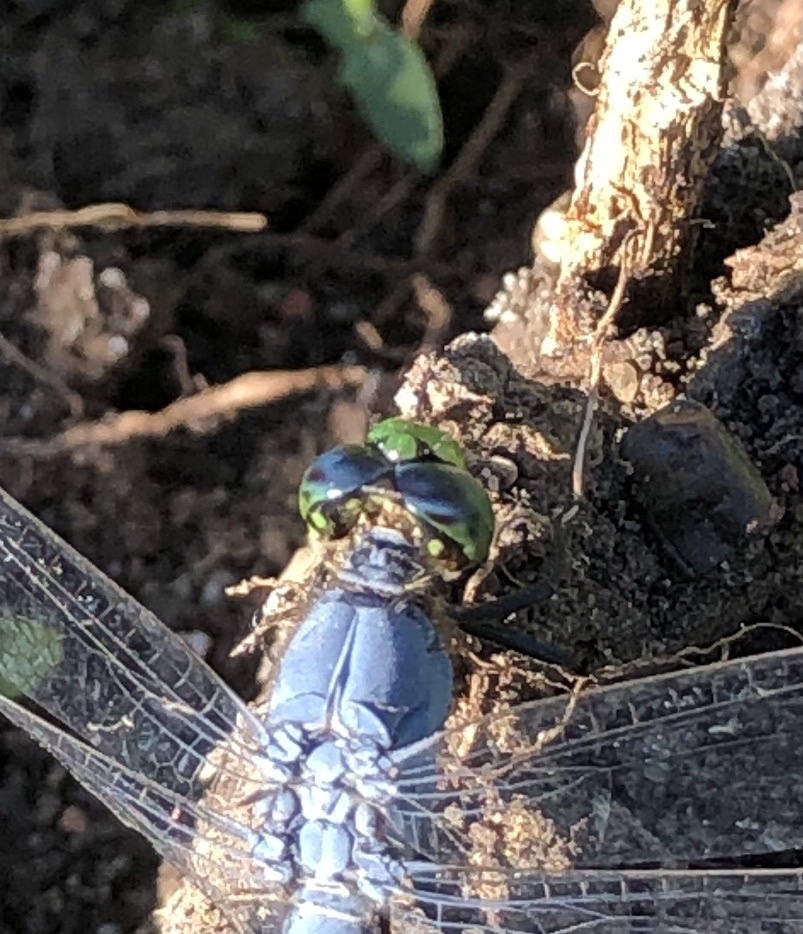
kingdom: Animalia
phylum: Arthropoda
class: Insecta
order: Odonata
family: Libellulidae
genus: Erythemis
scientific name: Erythemis simplicicollis
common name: Eastern pondhawk
